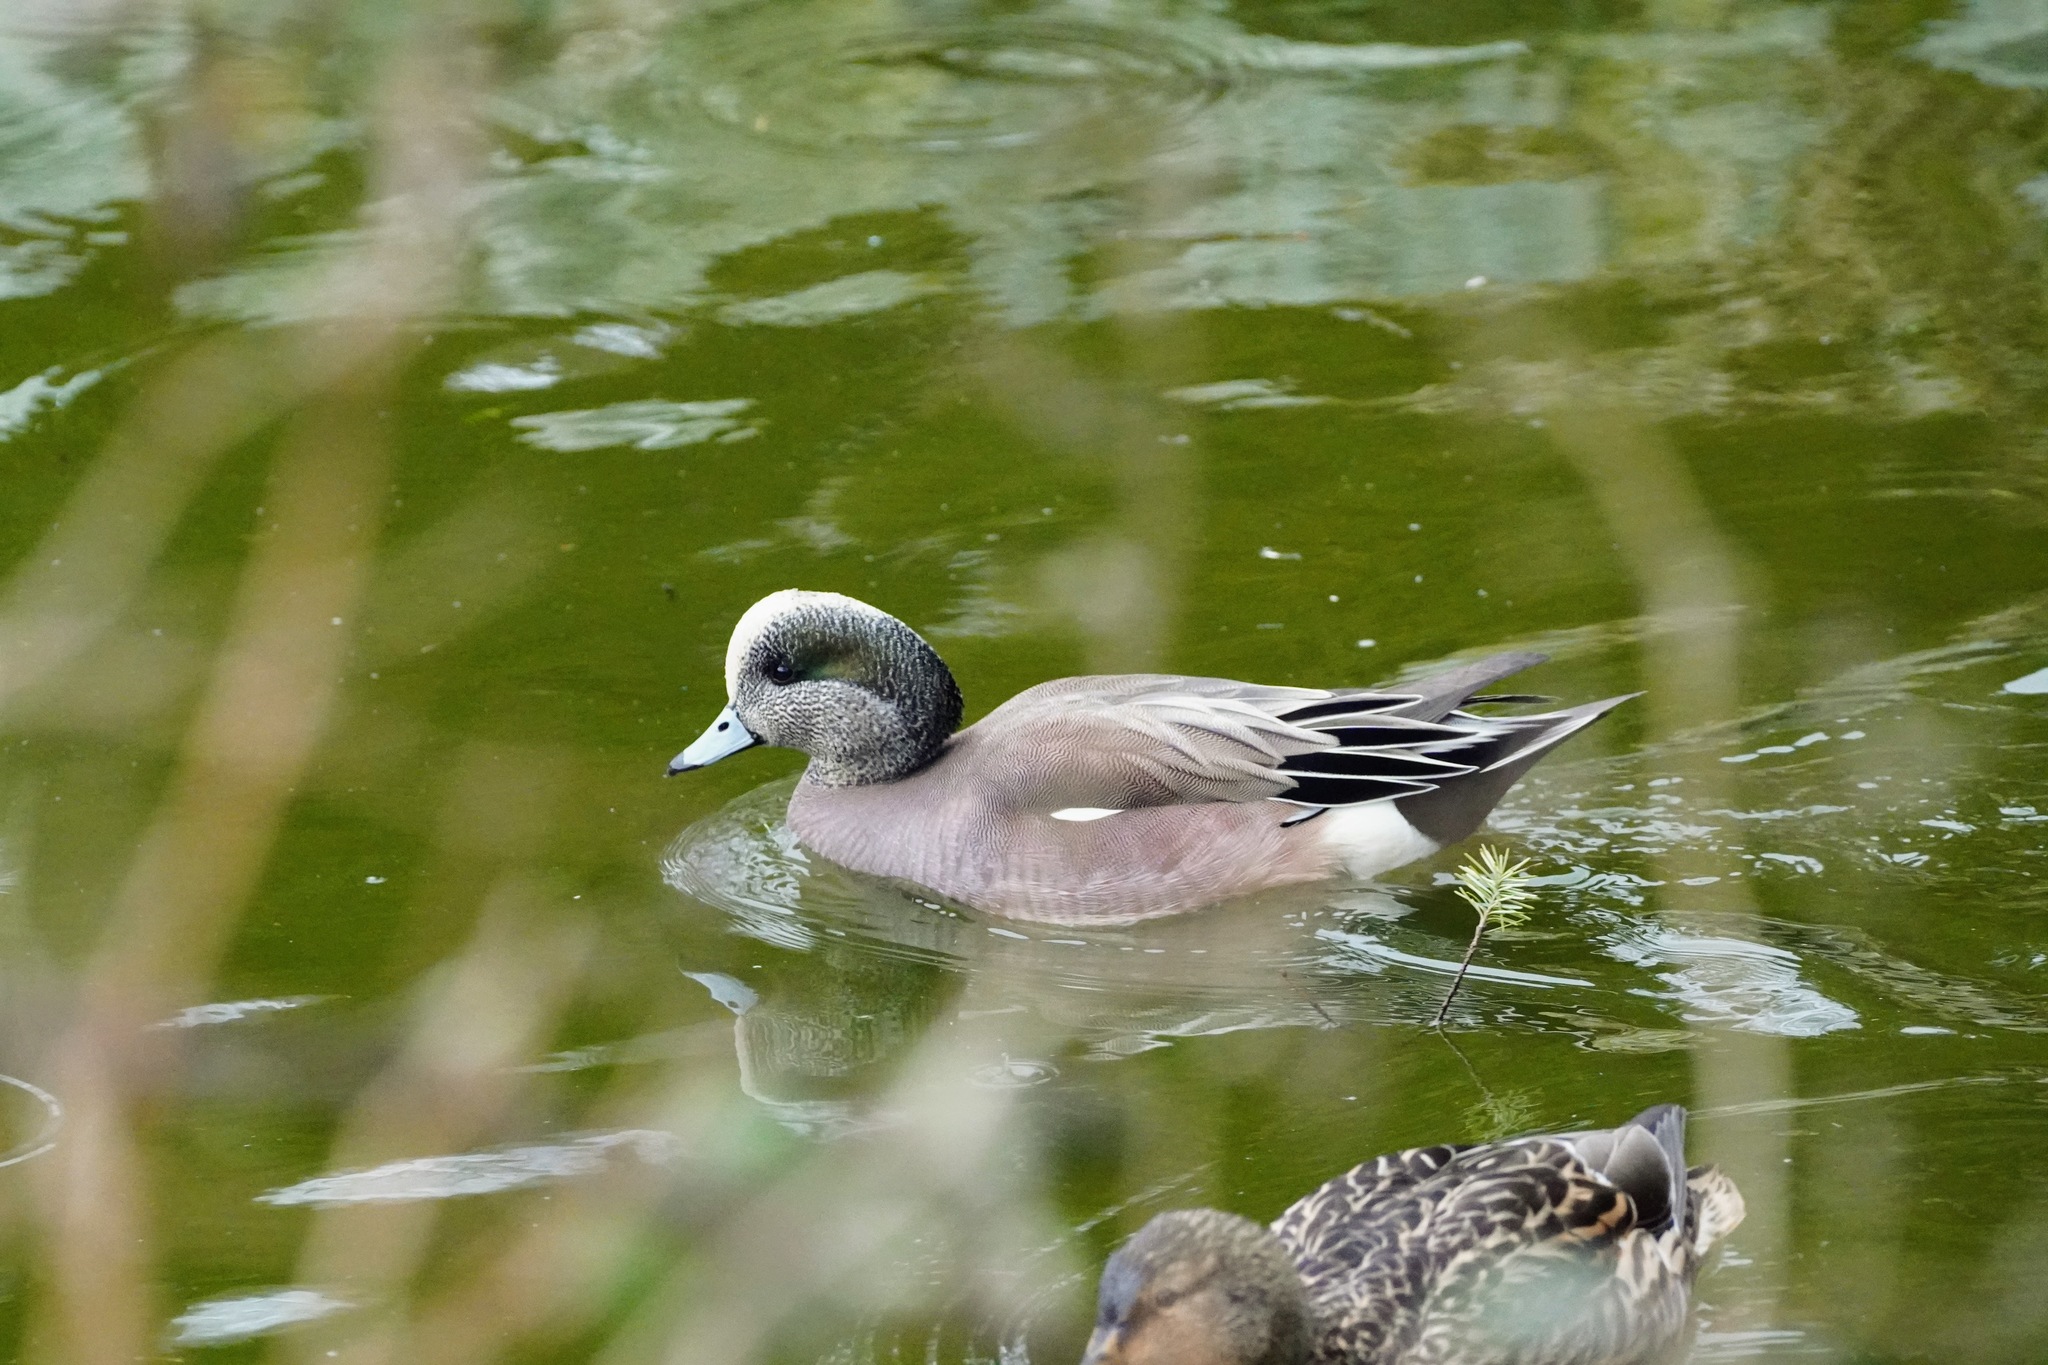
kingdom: Animalia
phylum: Chordata
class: Aves
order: Anseriformes
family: Anatidae
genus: Mareca
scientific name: Mareca americana
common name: American wigeon
